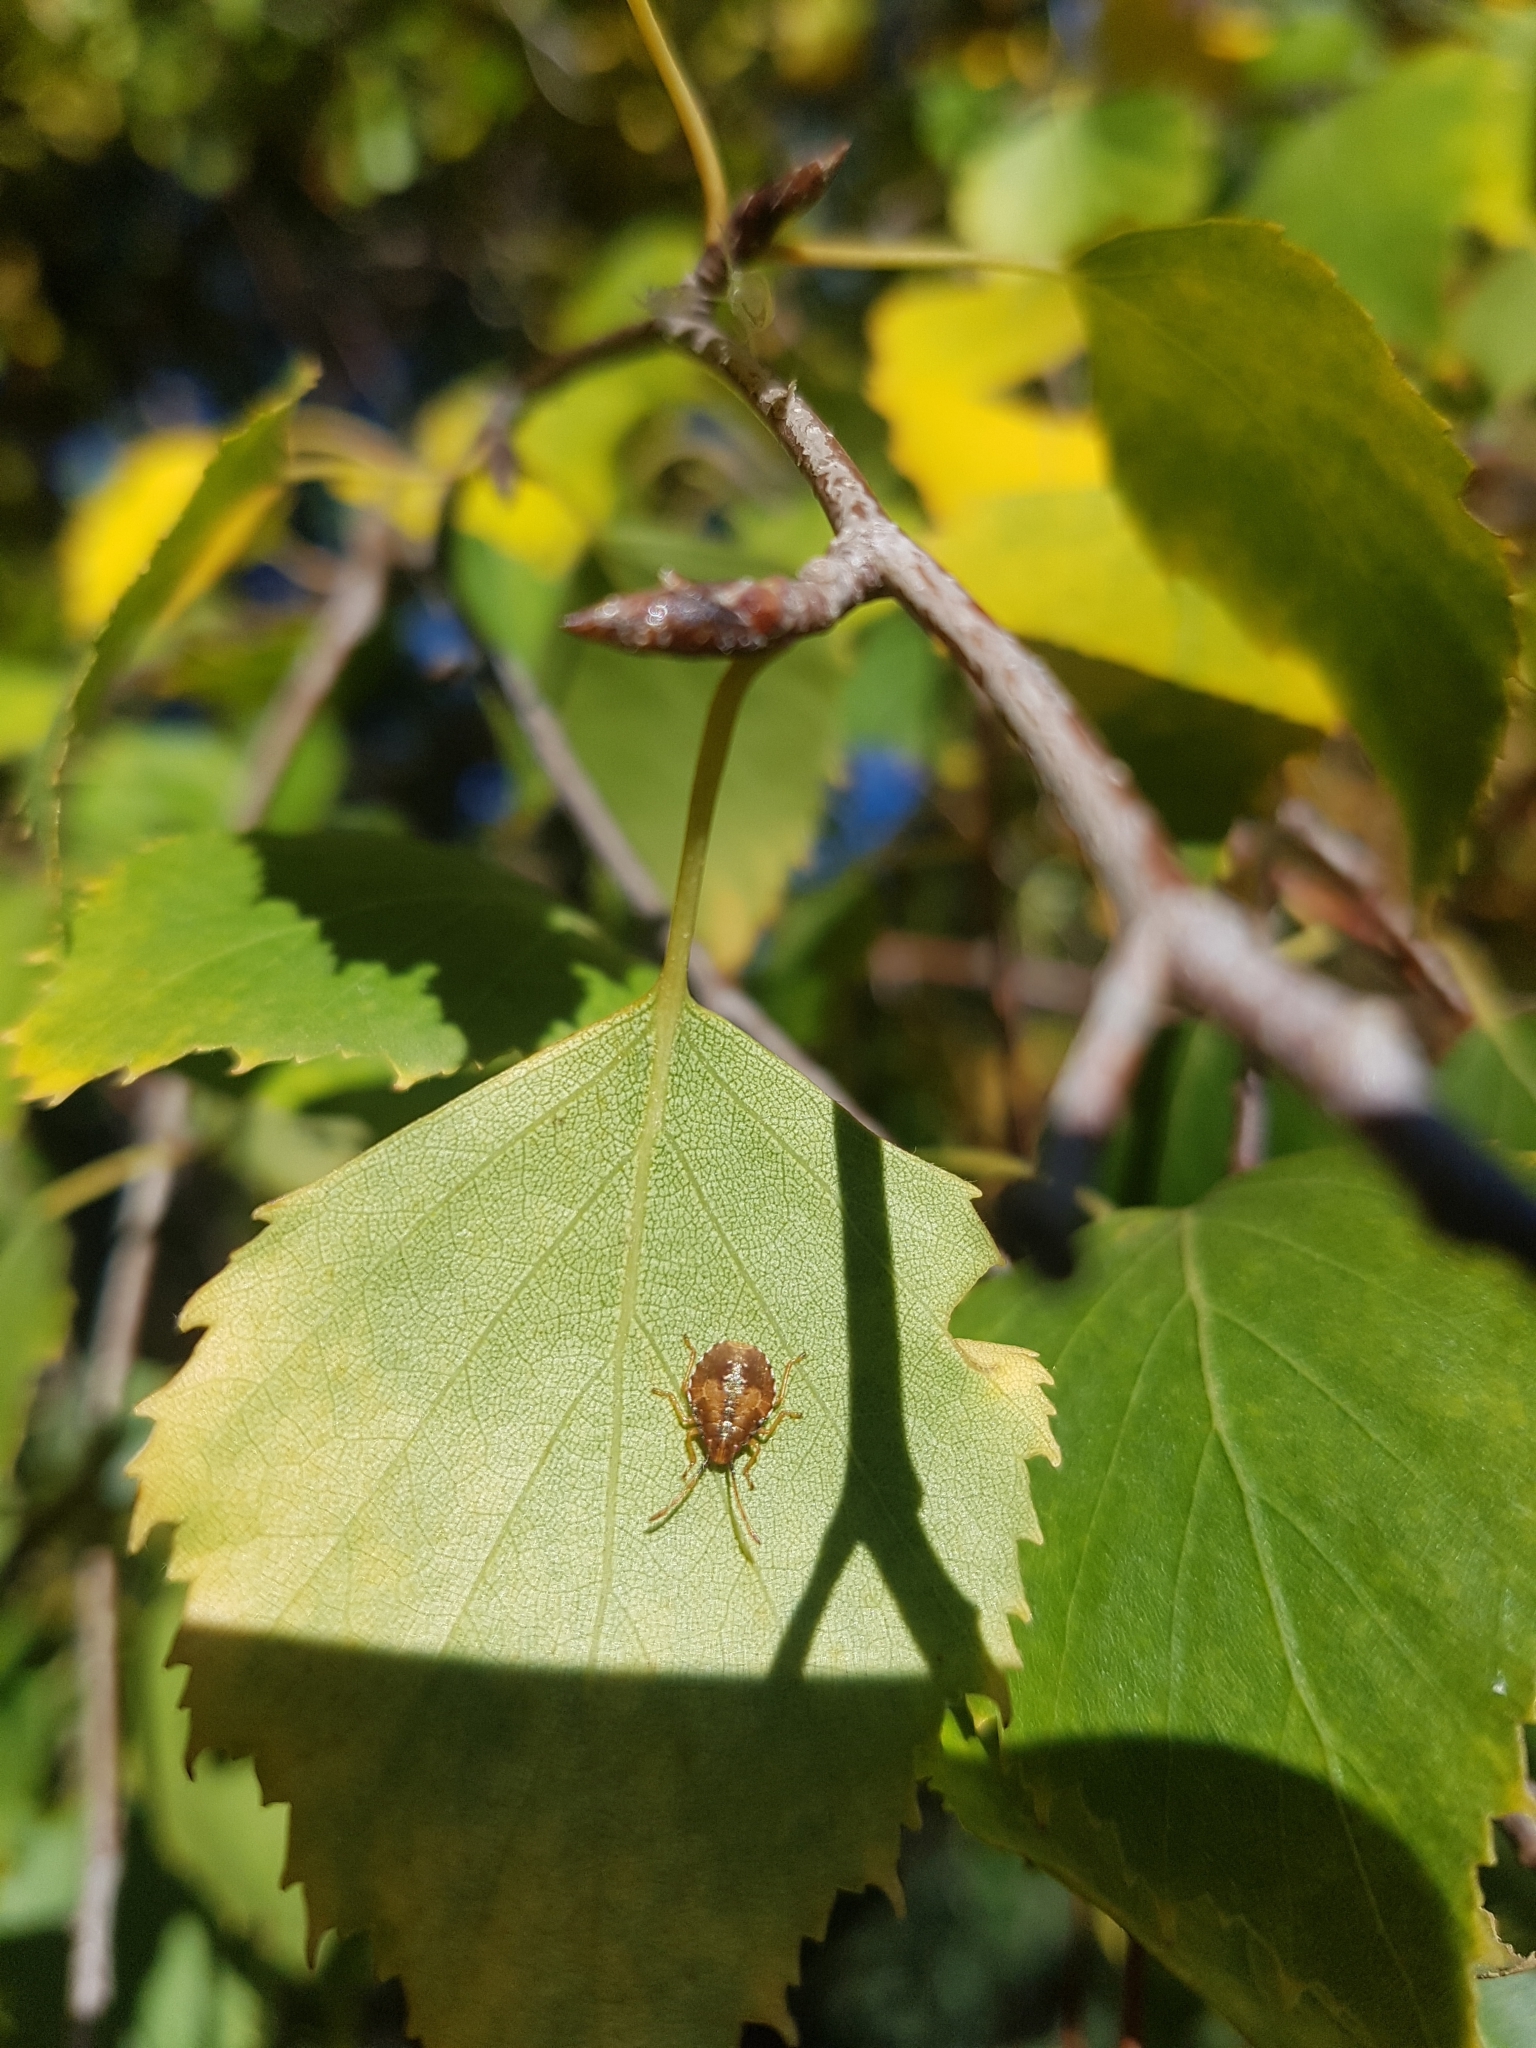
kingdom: Animalia
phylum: Arthropoda
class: Insecta
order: Hemiptera
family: Acanthosomatidae
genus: Planois
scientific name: Planois patagonus
